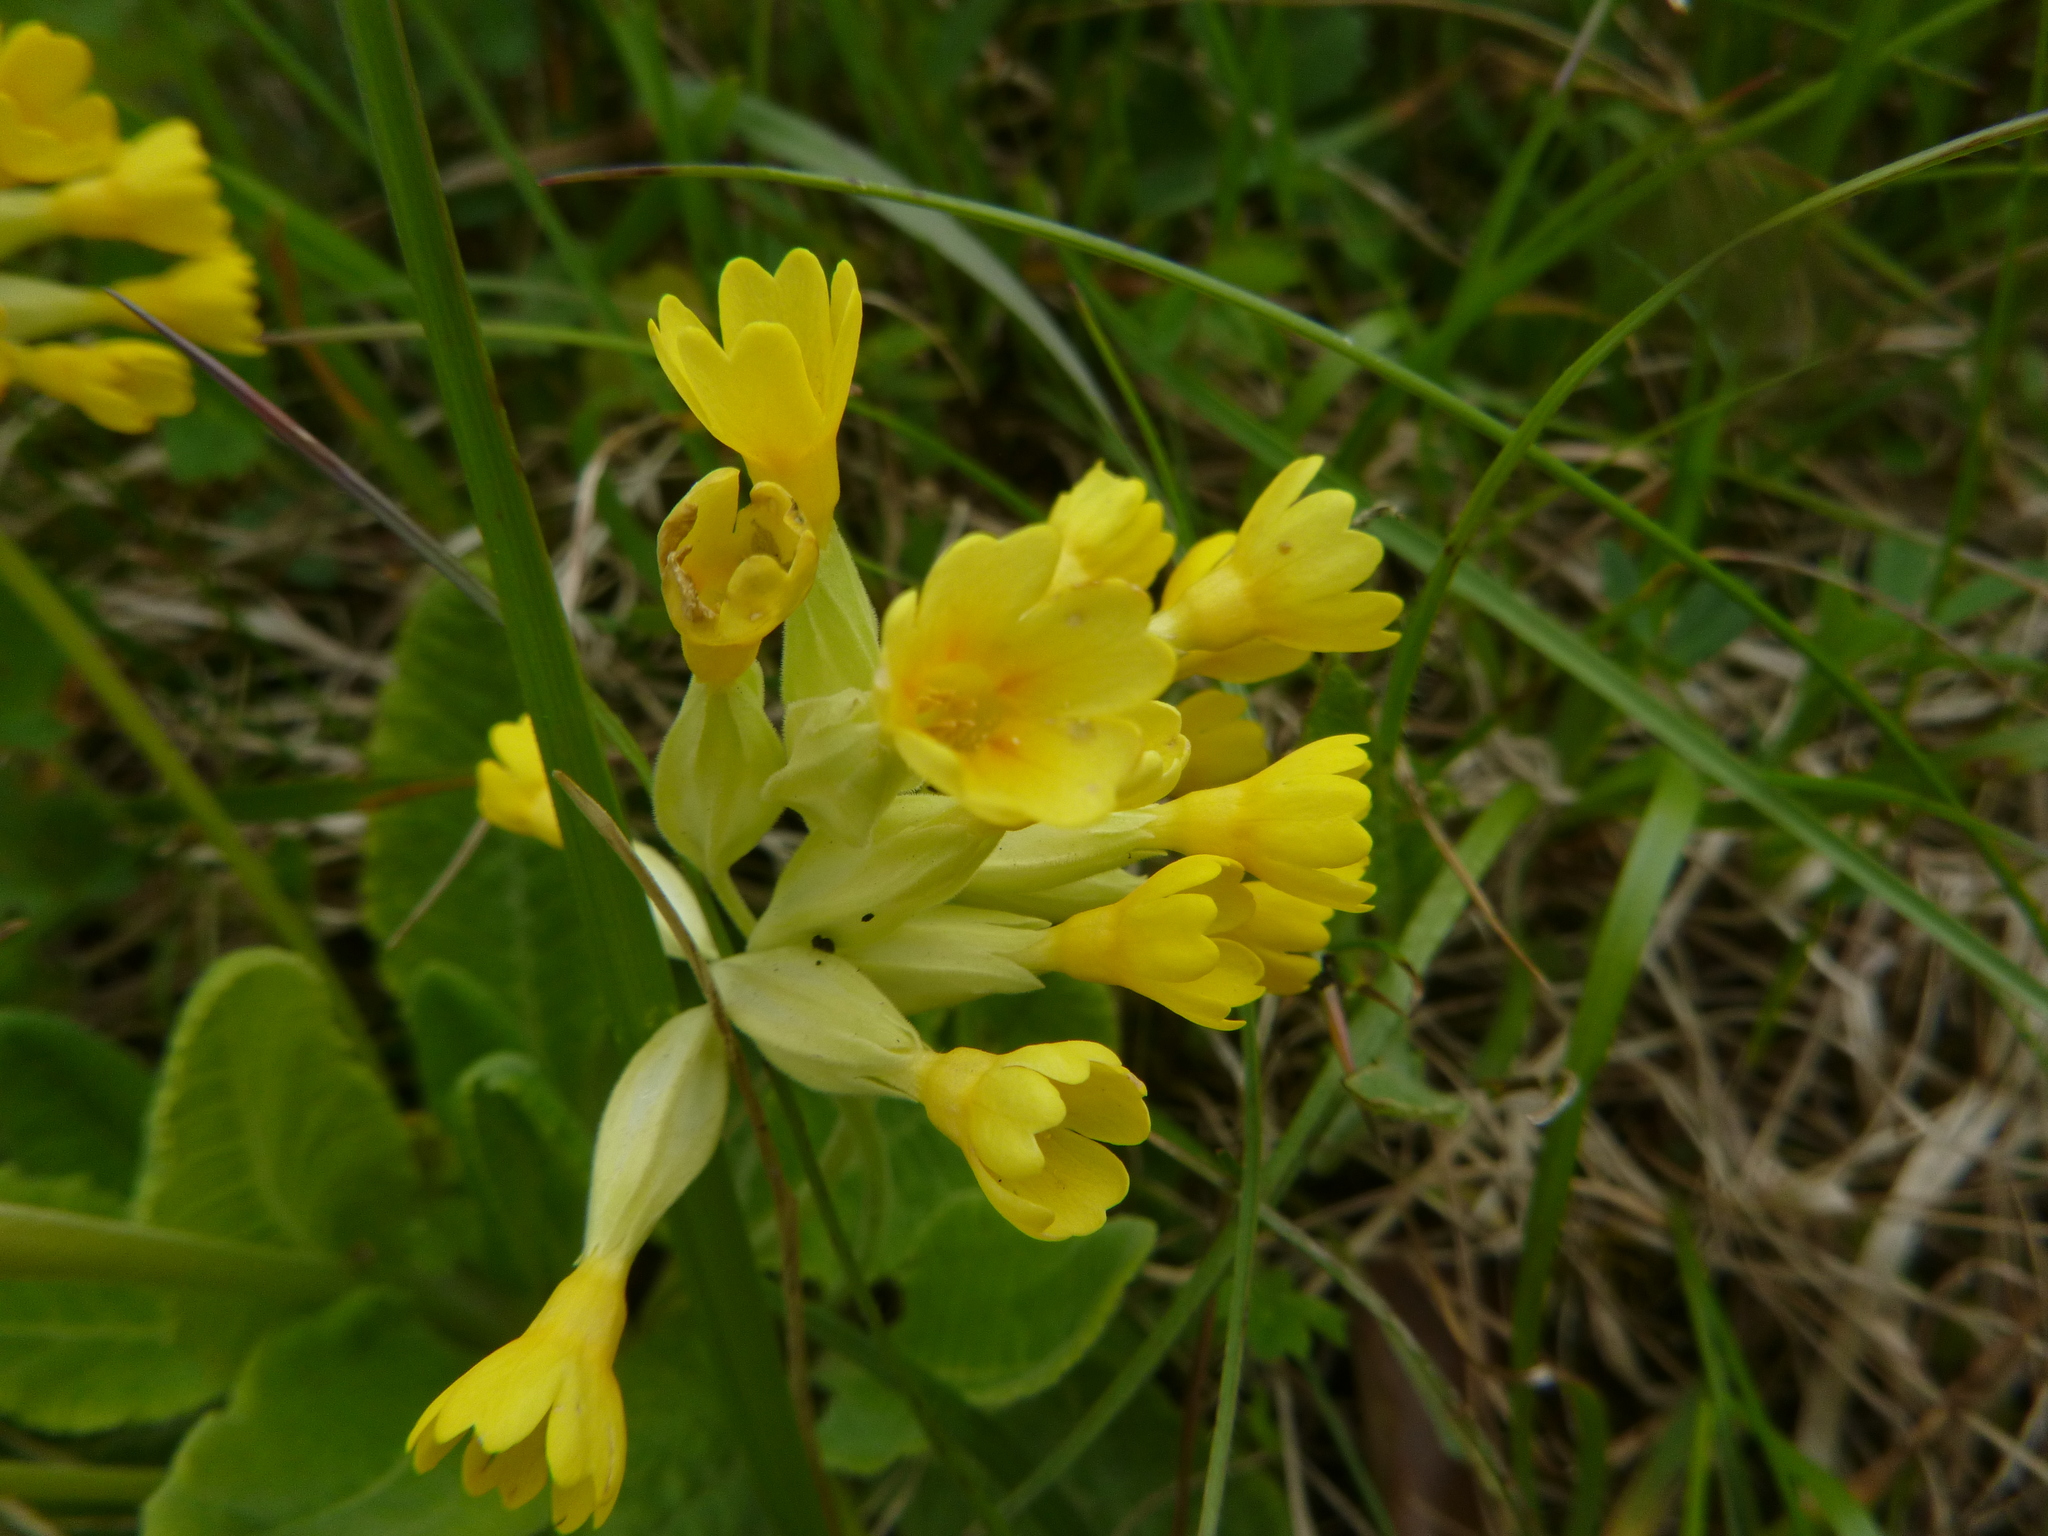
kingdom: Plantae
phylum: Tracheophyta
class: Magnoliopsida
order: Ericales
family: Primulaceae
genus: Primula
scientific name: Primula veris
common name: Cowslip
